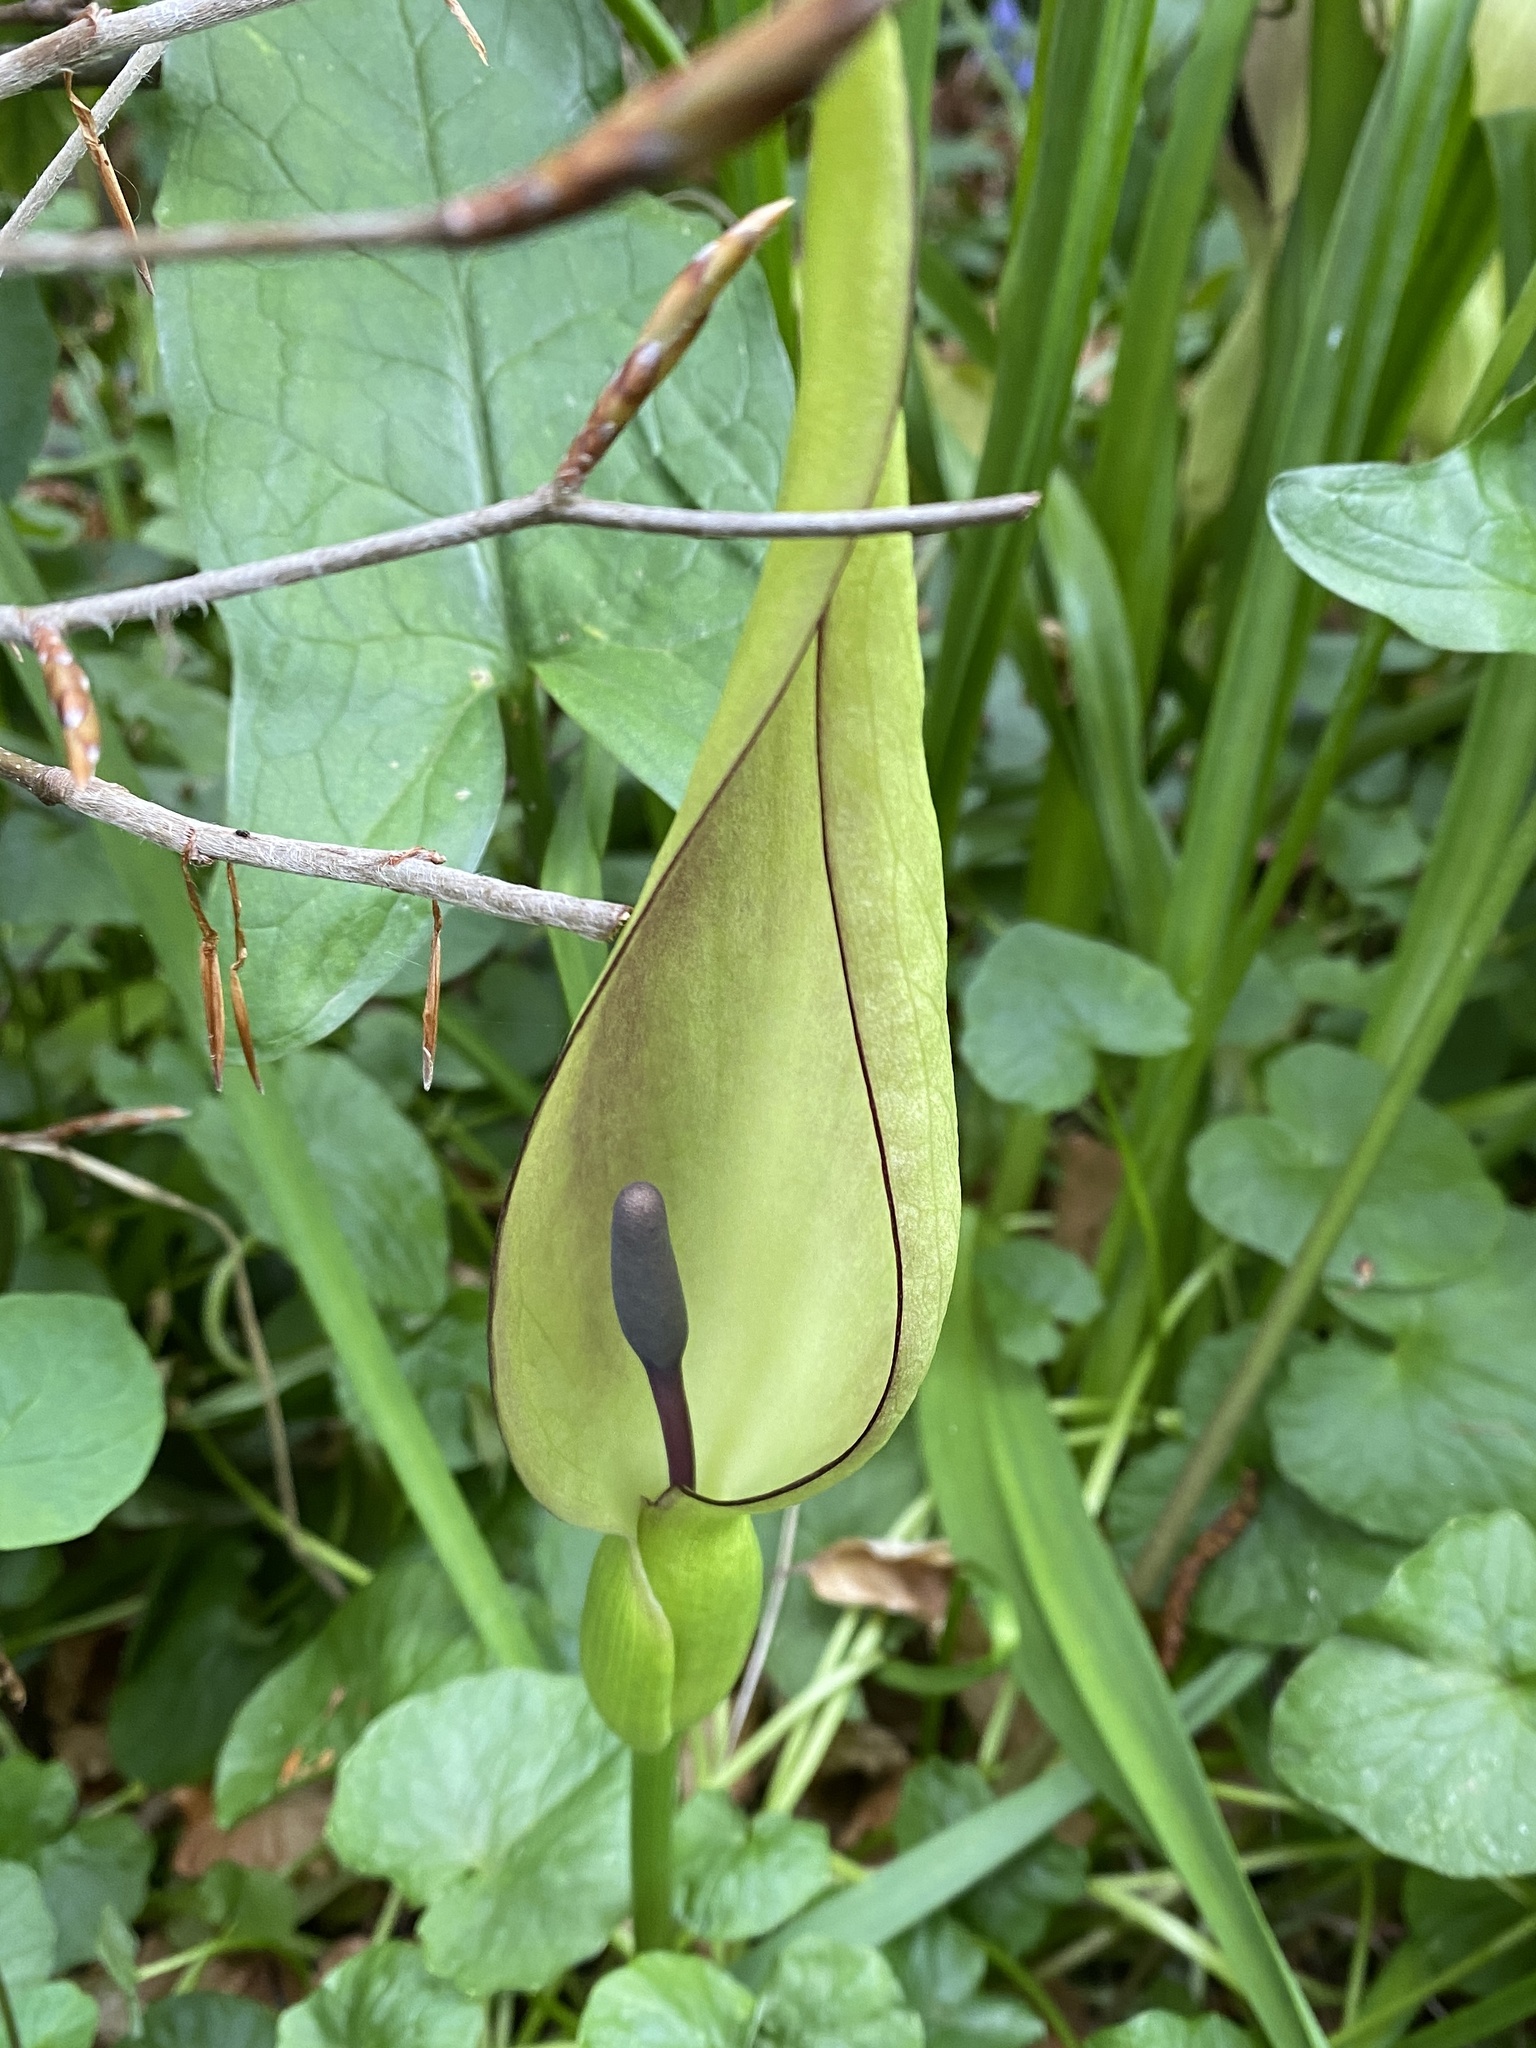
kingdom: Plantae
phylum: Tracheophyta
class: Liliopsida
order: Alismatales
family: Araceae
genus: Arum
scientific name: Arum maculatum
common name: Lords-and-ladies
